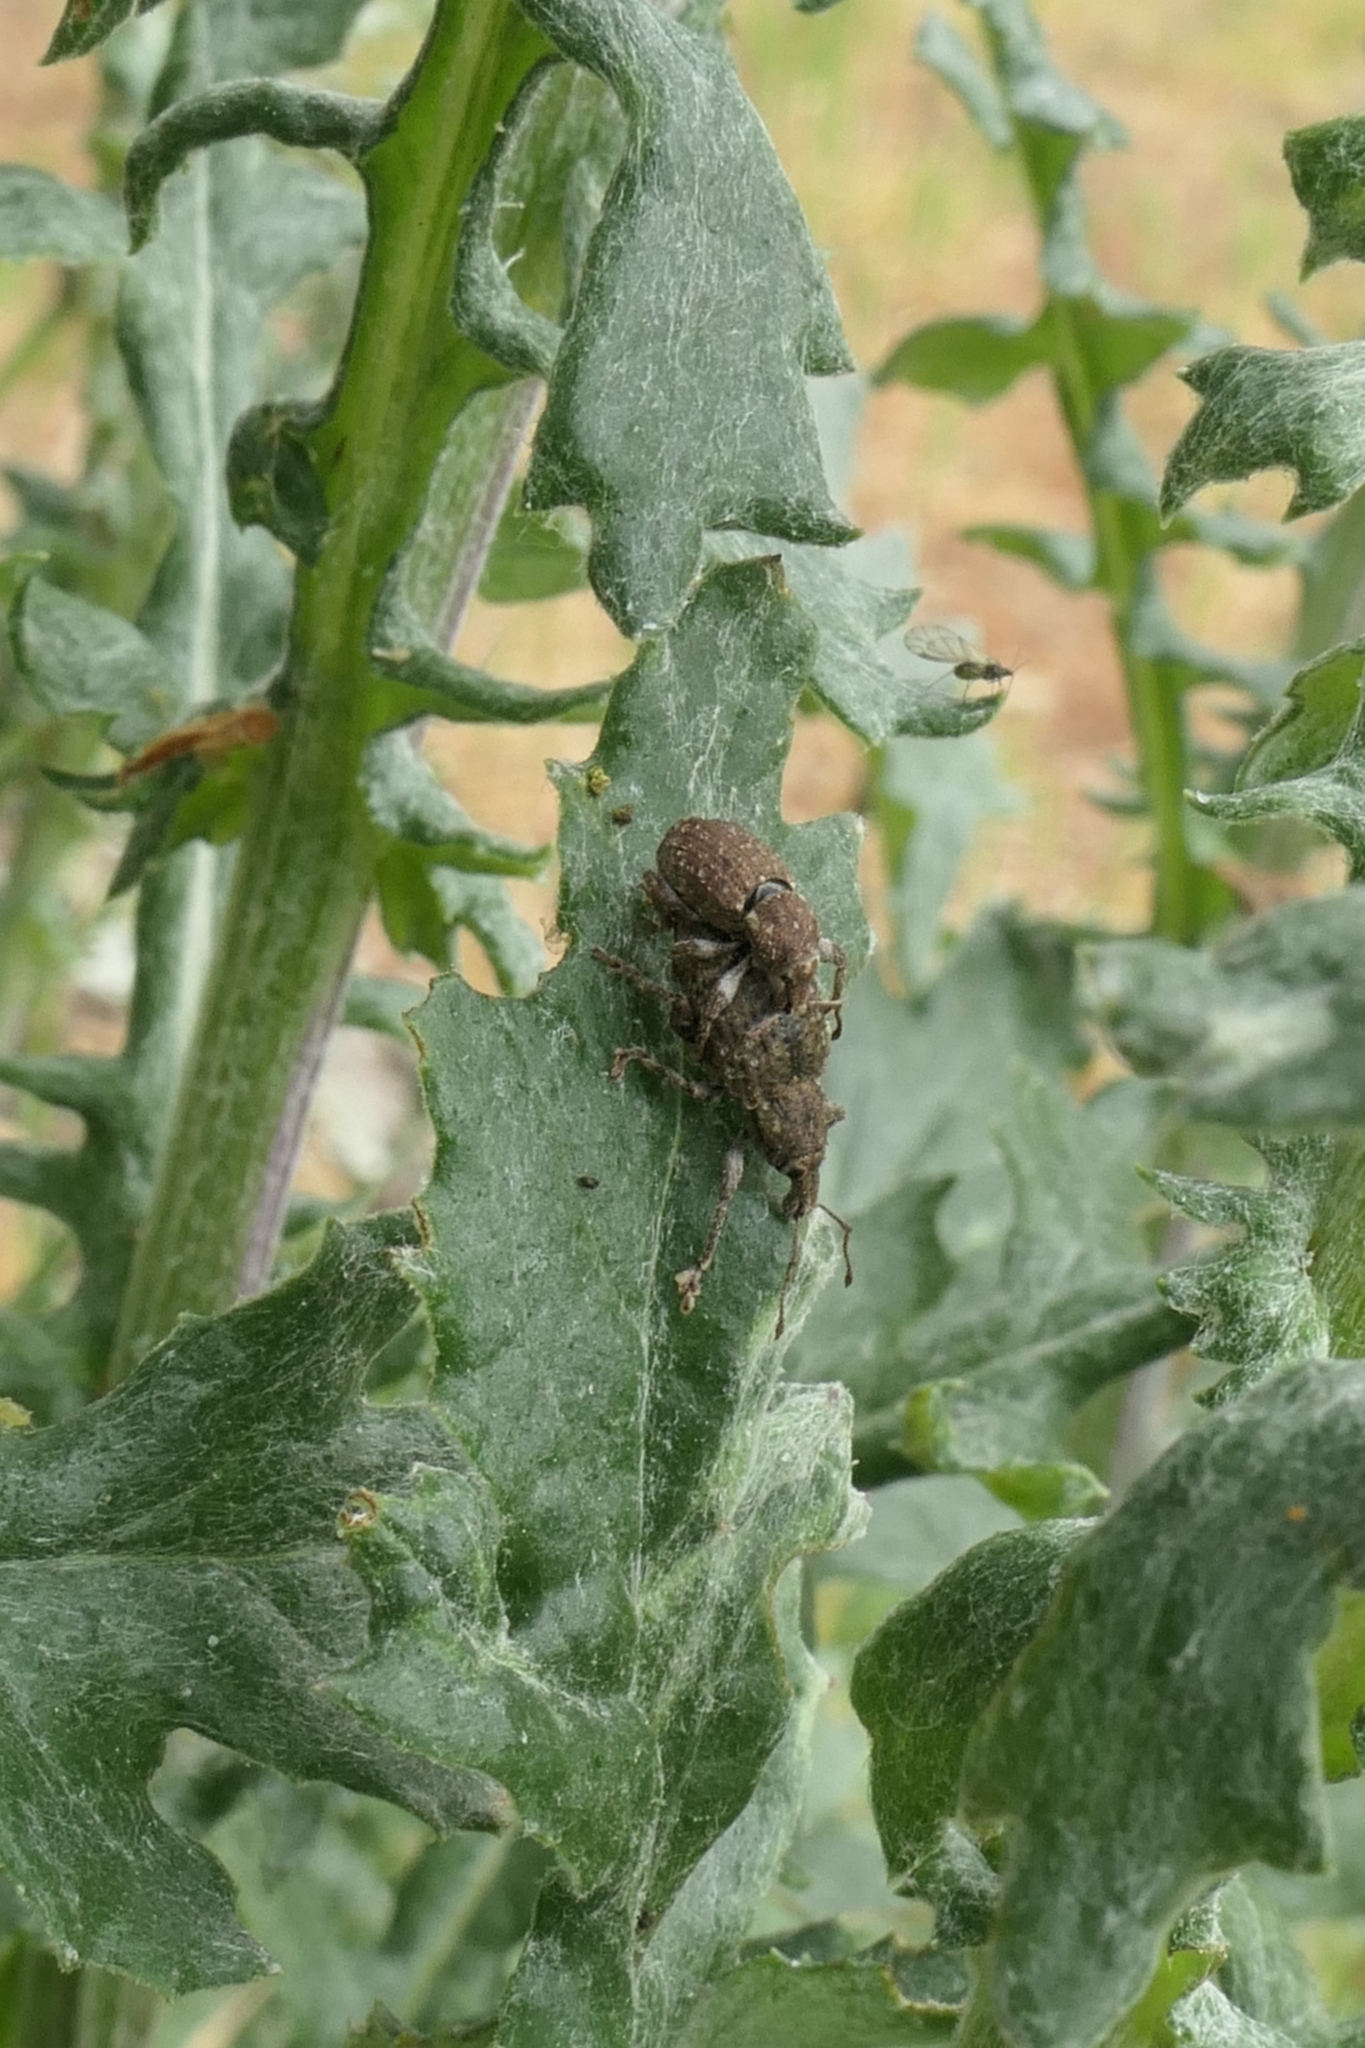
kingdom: Animalia
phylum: Arthropoda
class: Insecta
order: Coleoptera
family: Curculionidae
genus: Irenimus
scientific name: Irenimus parilis
